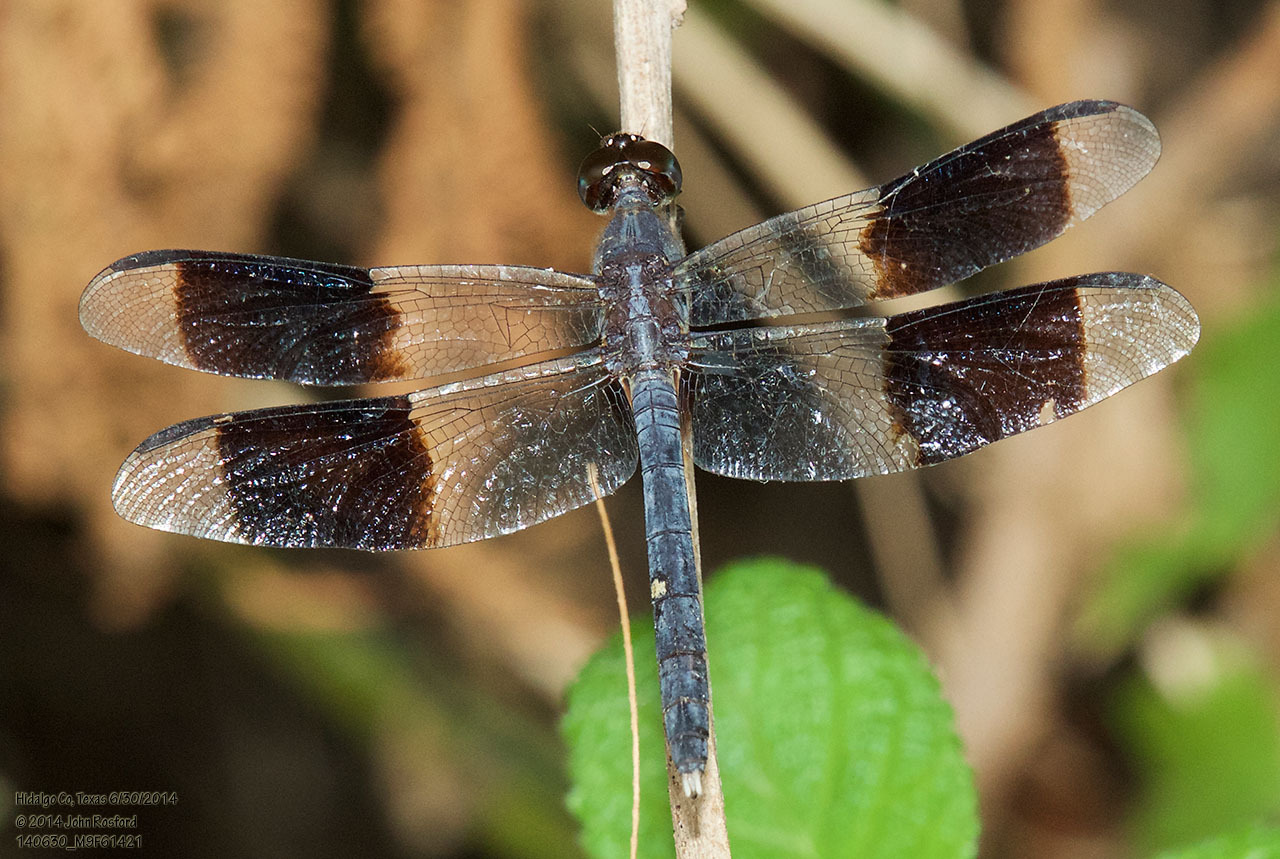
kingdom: Animalia
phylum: Arthropoda
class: Insecta
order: Odonata
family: Libellulidae
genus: Erythrodiplax
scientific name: Erythrodiplax umbrata
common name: Band-winged dragonlet
